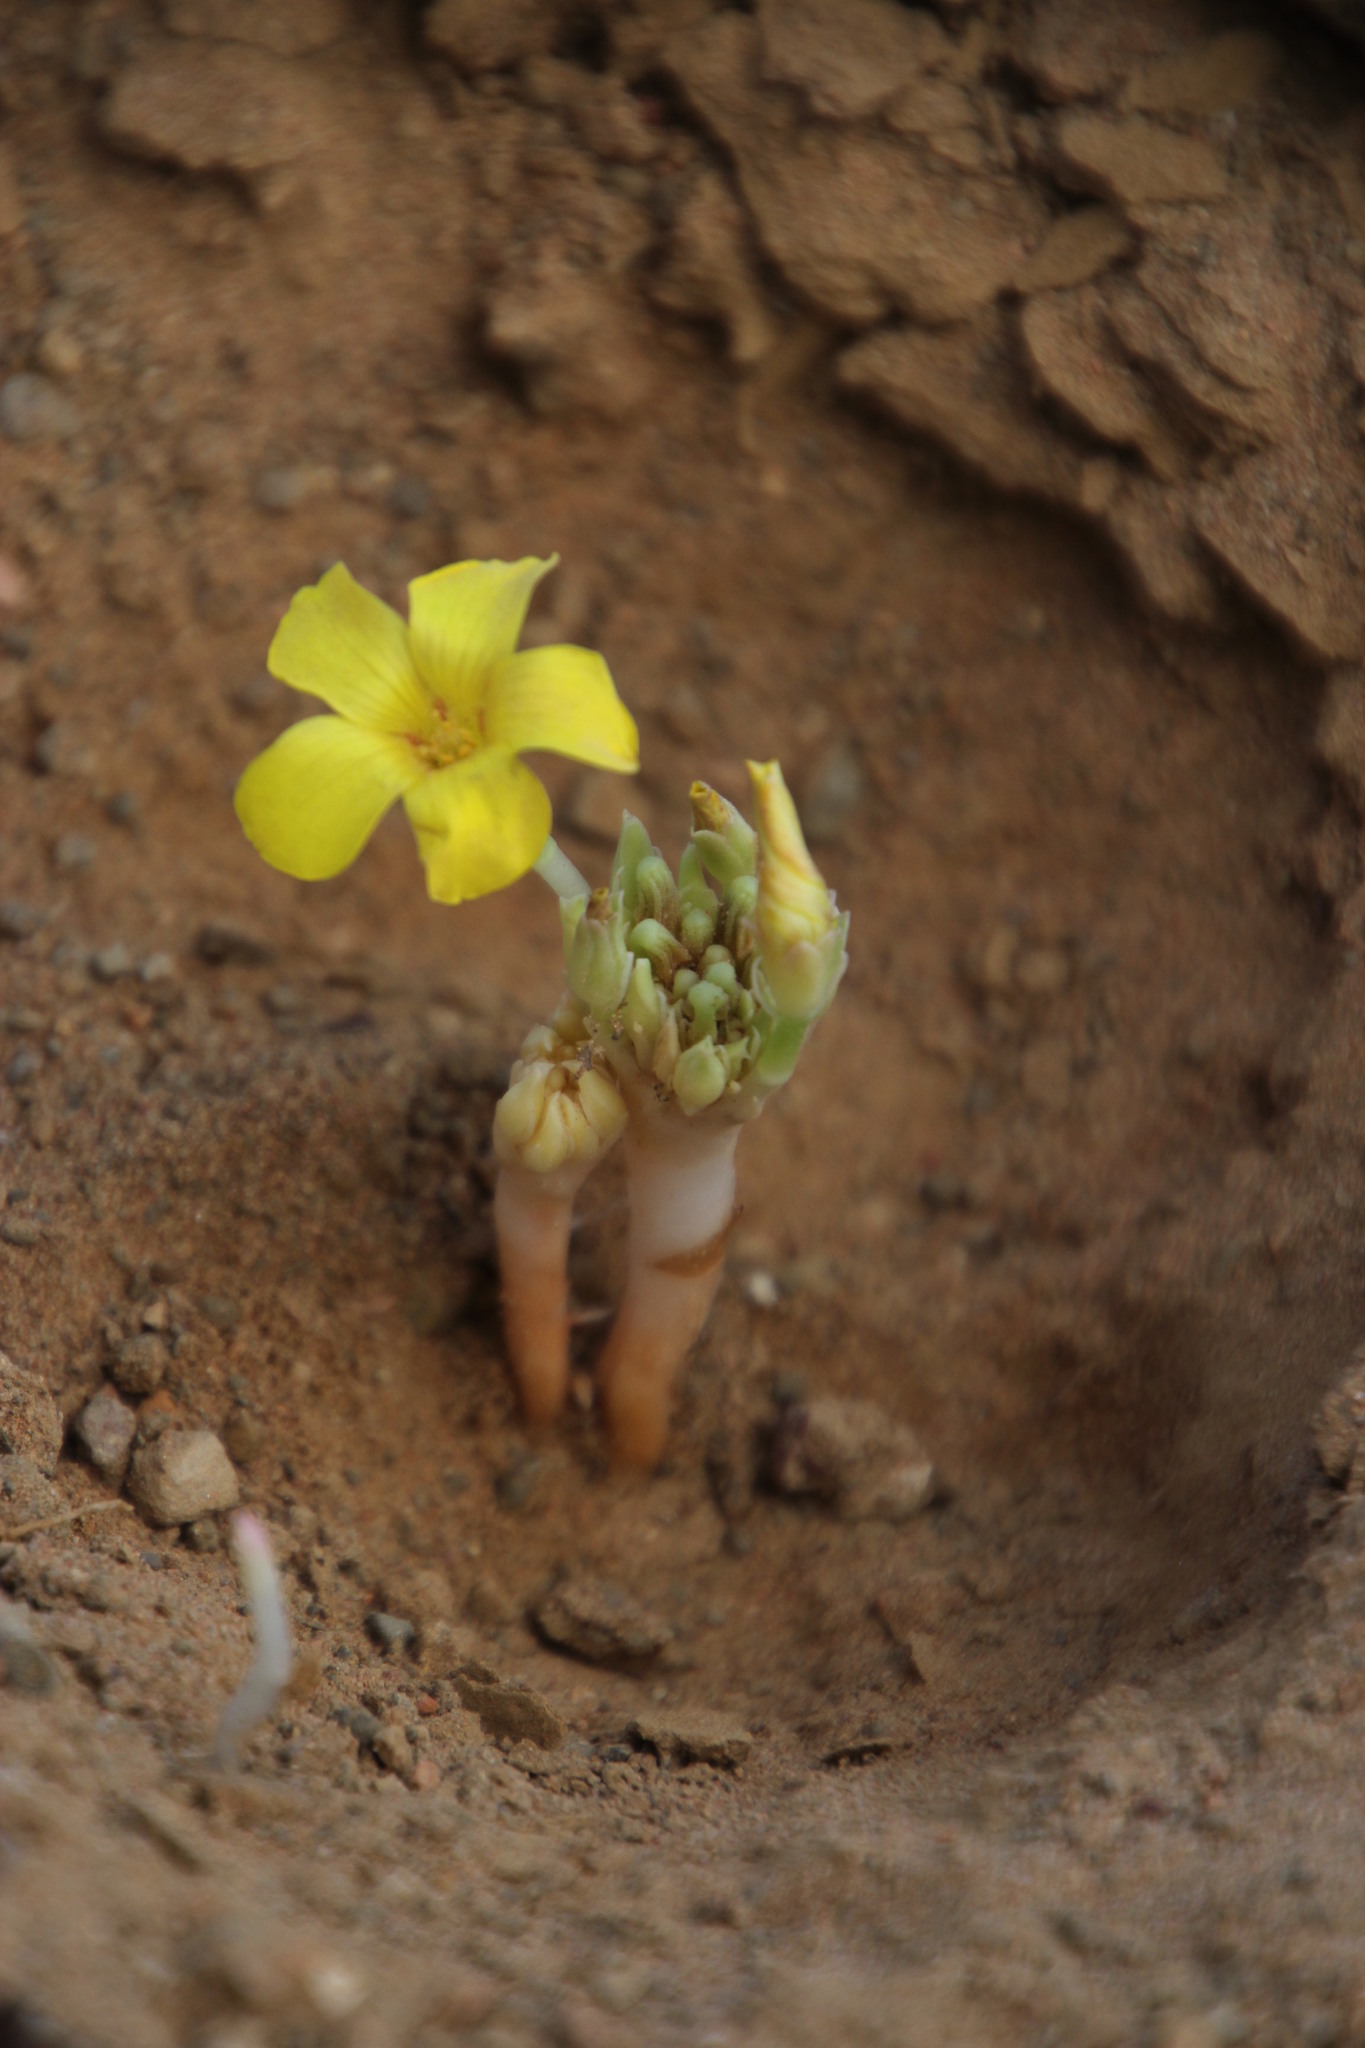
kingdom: Plantae
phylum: Tracheophyta
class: Magnoliopsida
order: Oxalidales
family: Oxalidaceae
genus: Oxalis
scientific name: Oxalis flava
